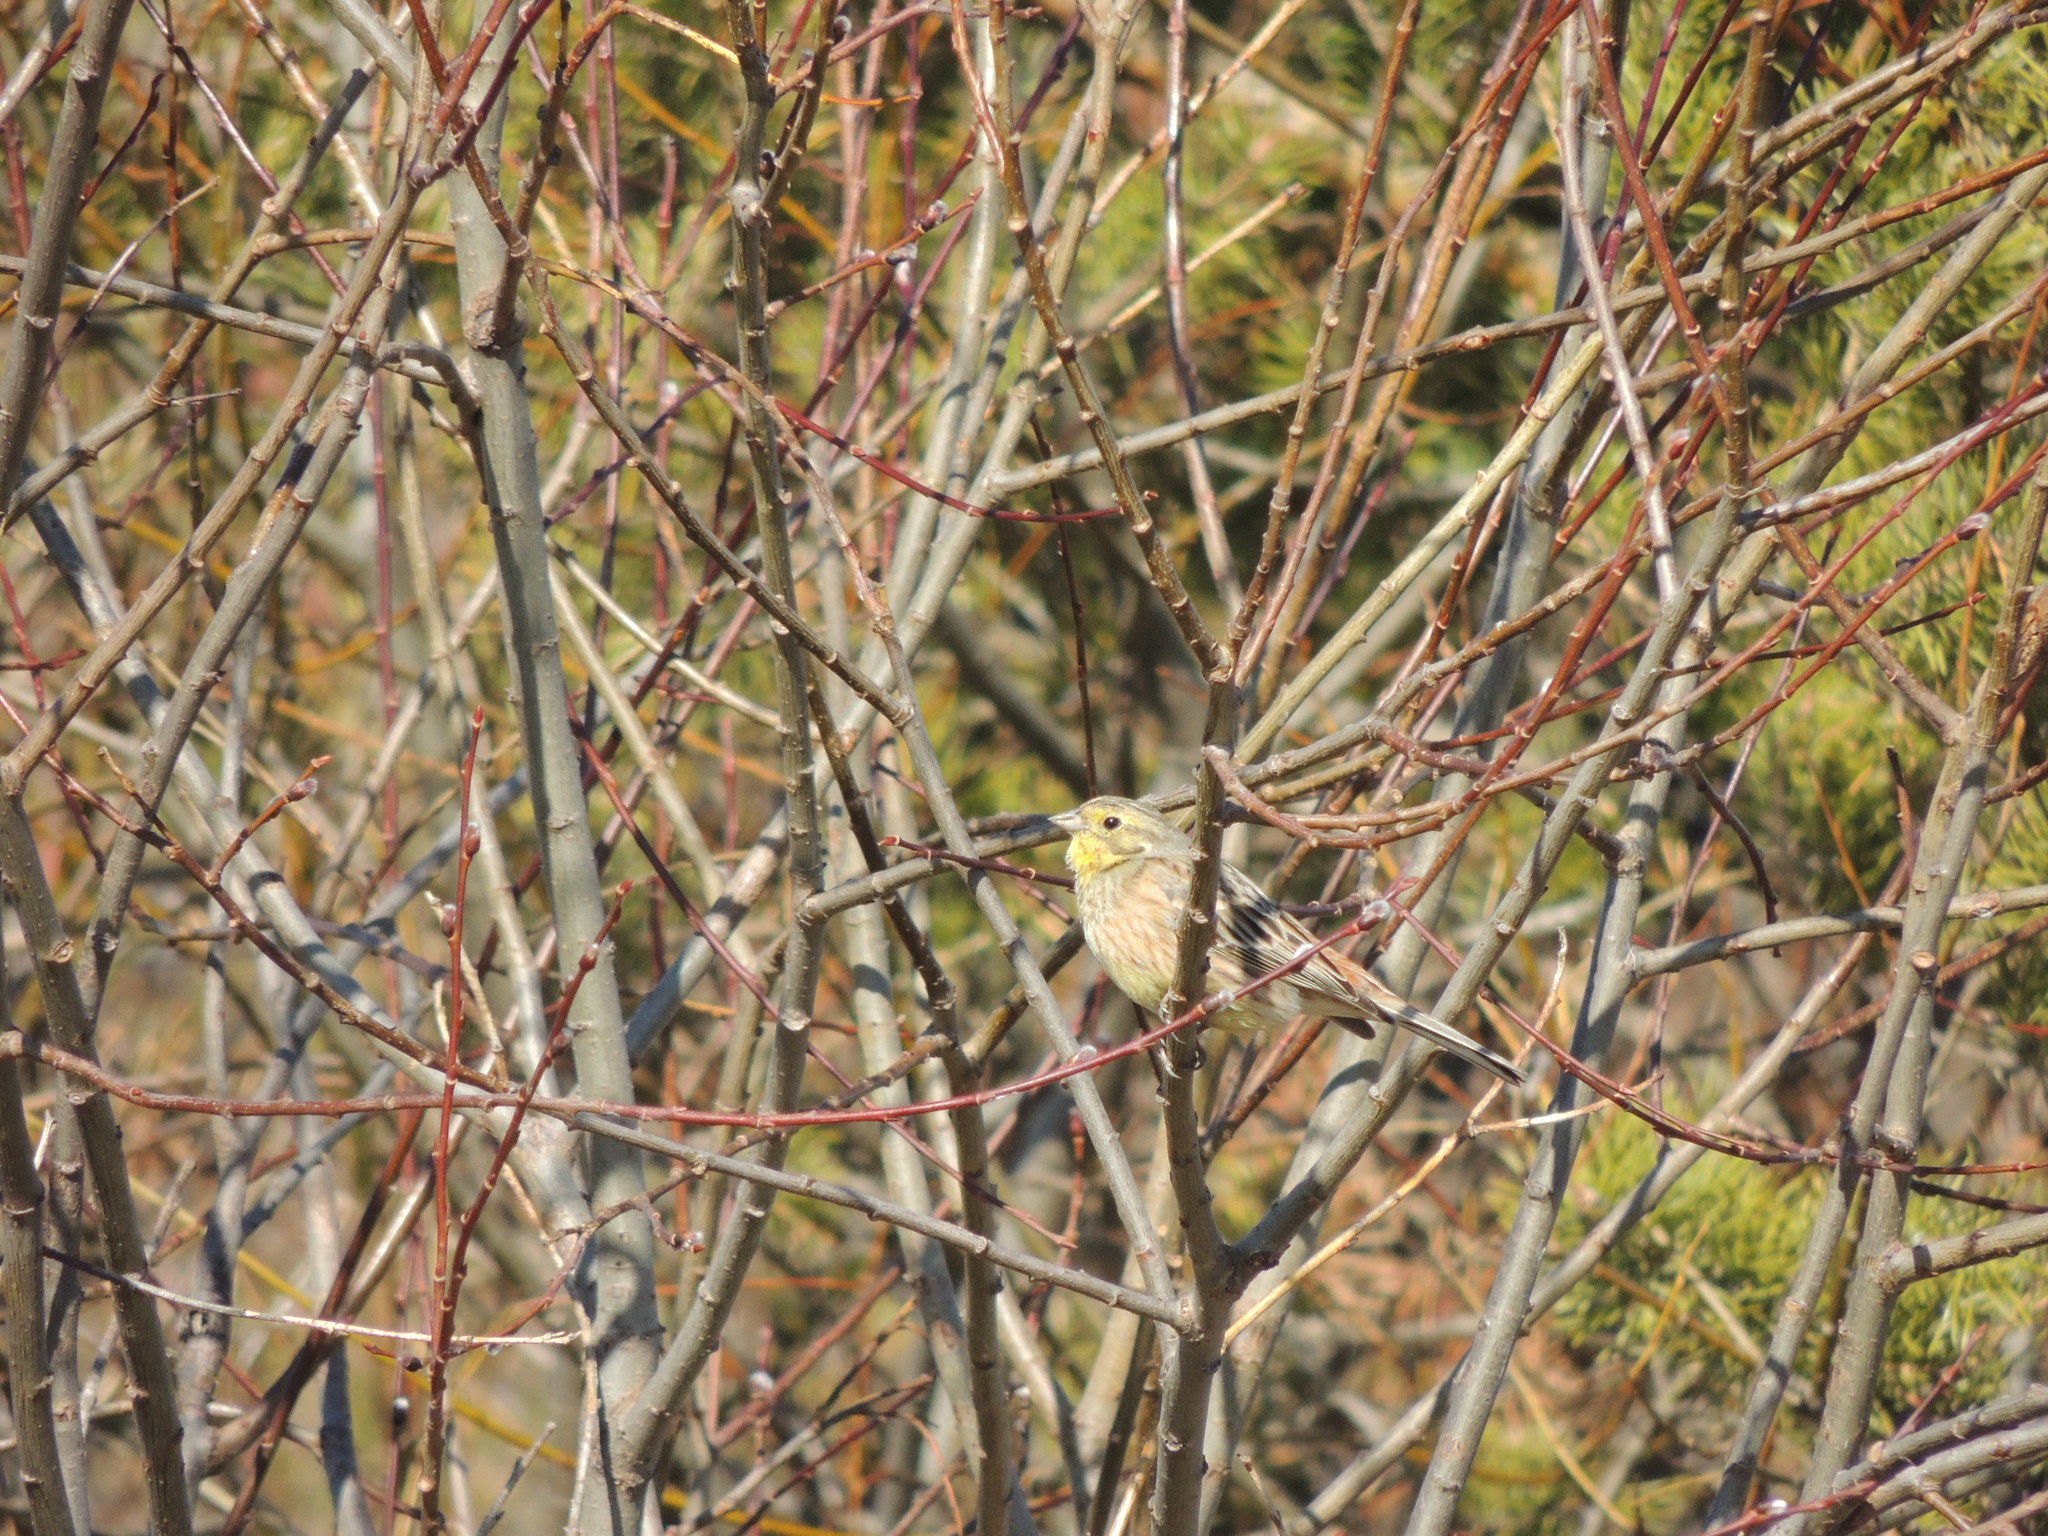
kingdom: Animalia
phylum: Chordata
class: Aves
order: Passeriformes
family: Emberizidae
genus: Emberiza
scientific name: Emberiza citrinella
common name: Yellowhammer
